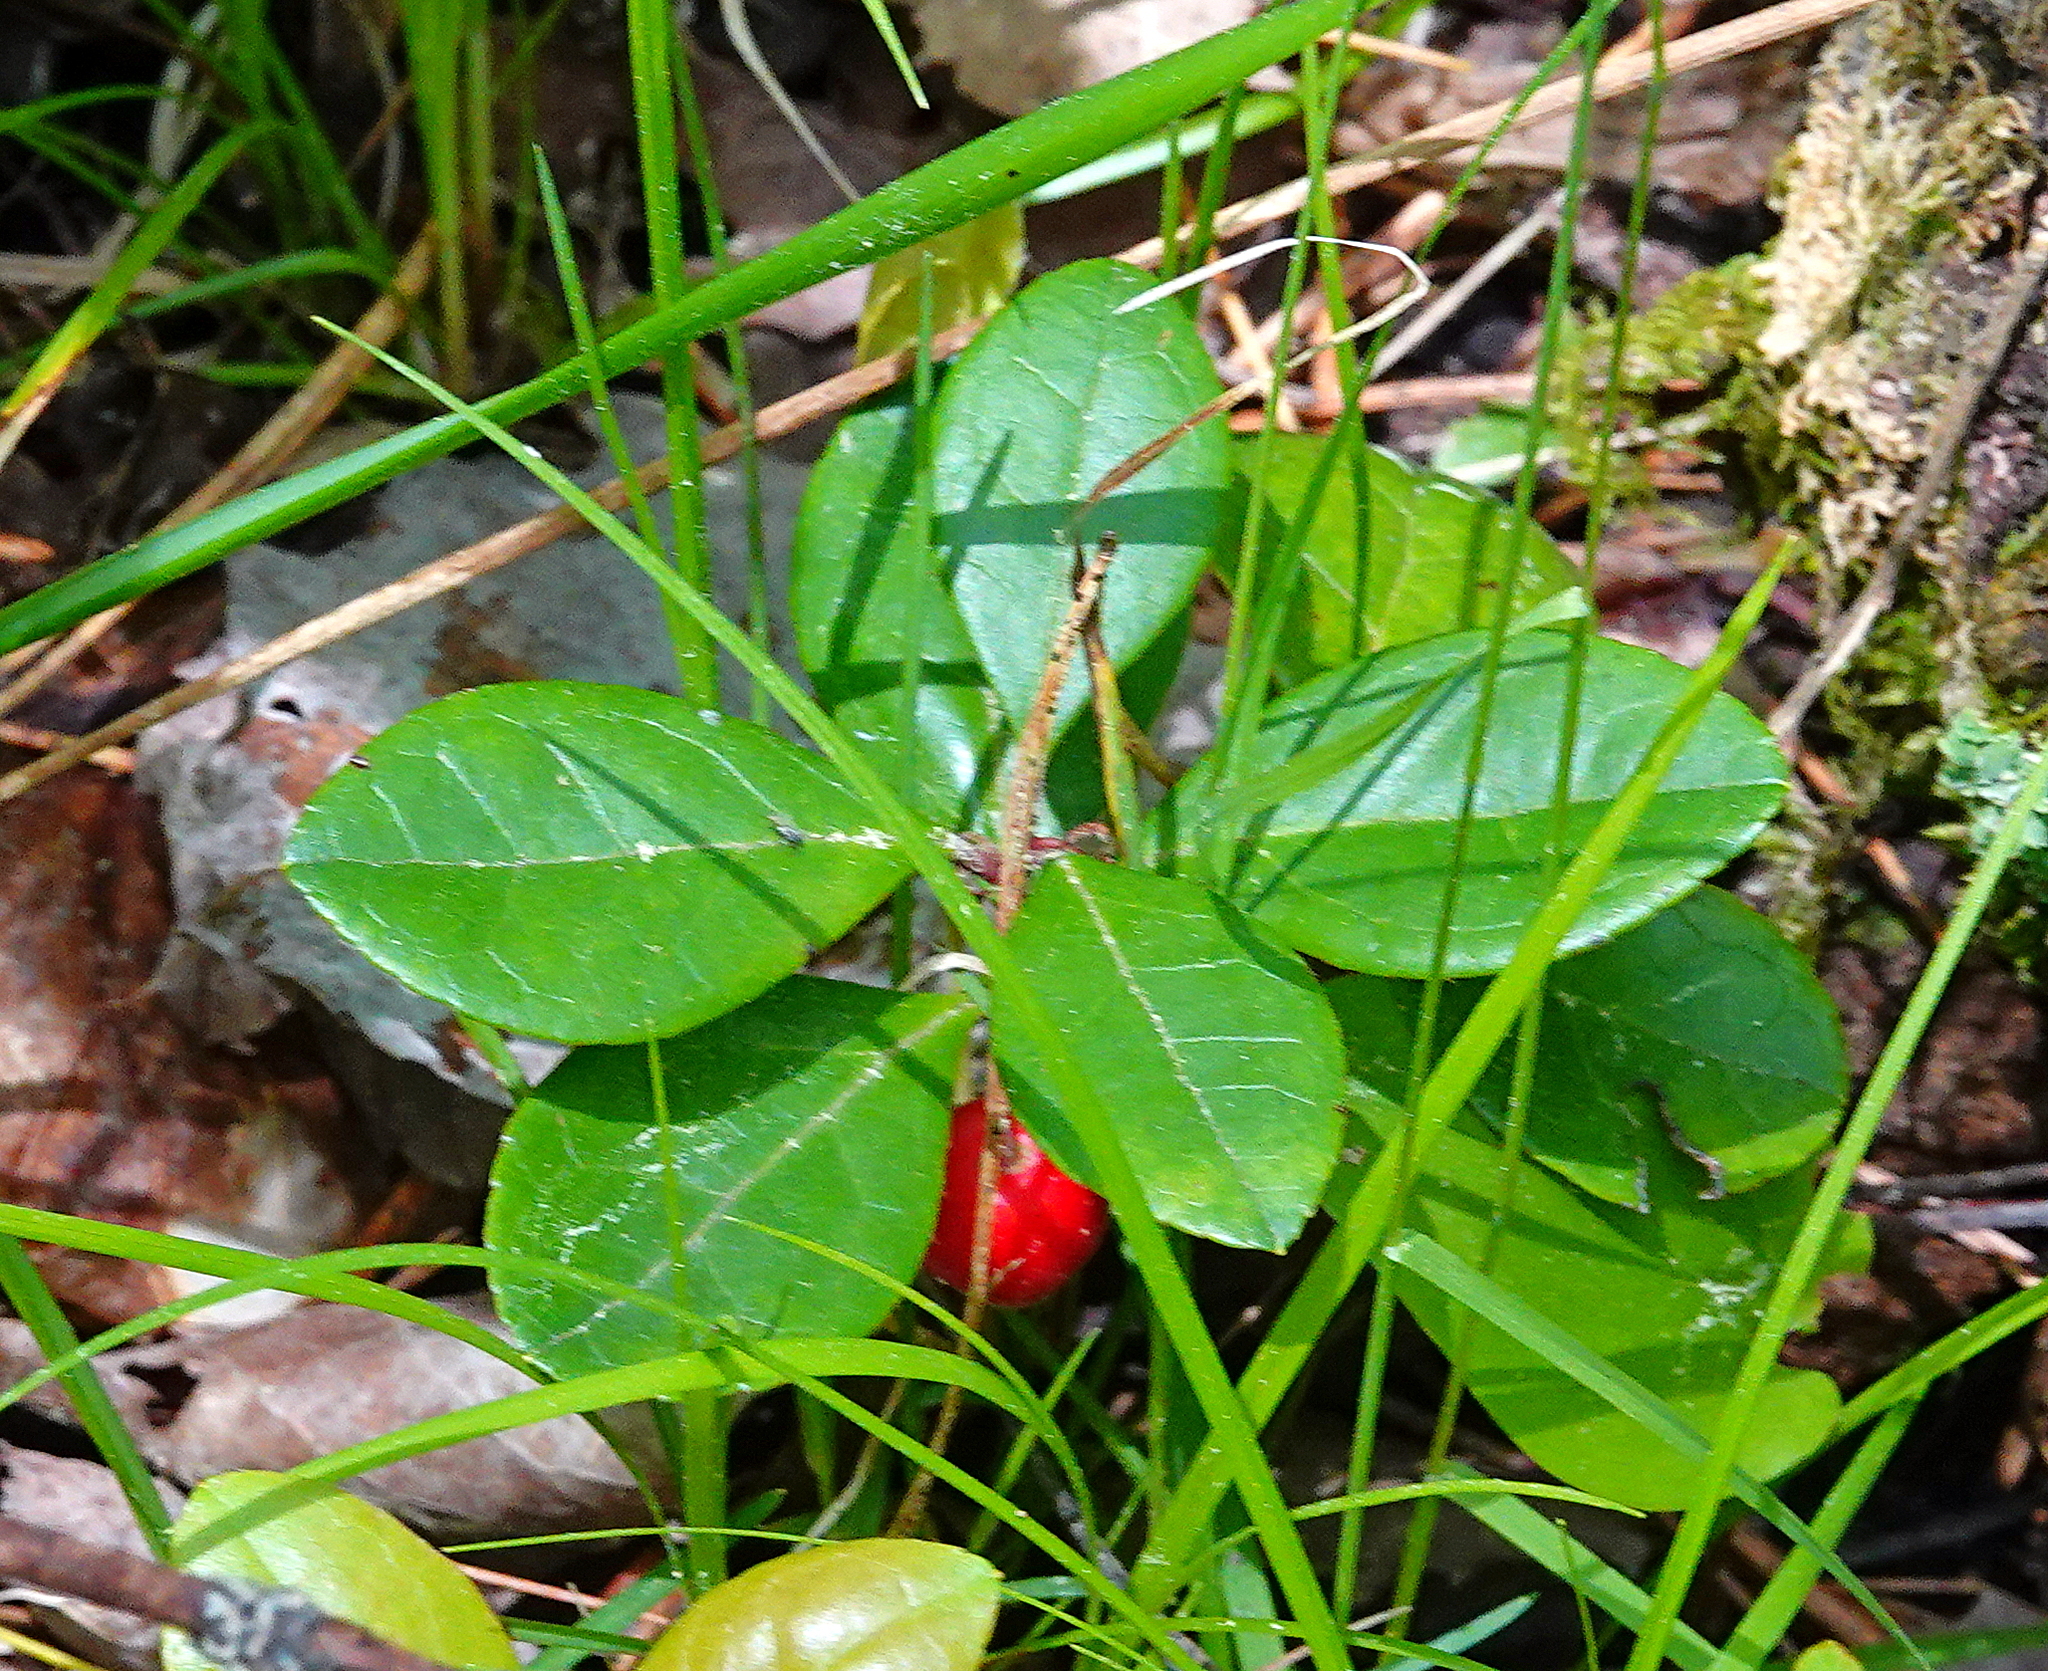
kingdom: Plantae
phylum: Tracheophyta
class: Magnoliopsida
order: Ericales
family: Ericaceae
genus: Gaultheria
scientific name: Gaultheria procumbens
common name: Checkerberry
